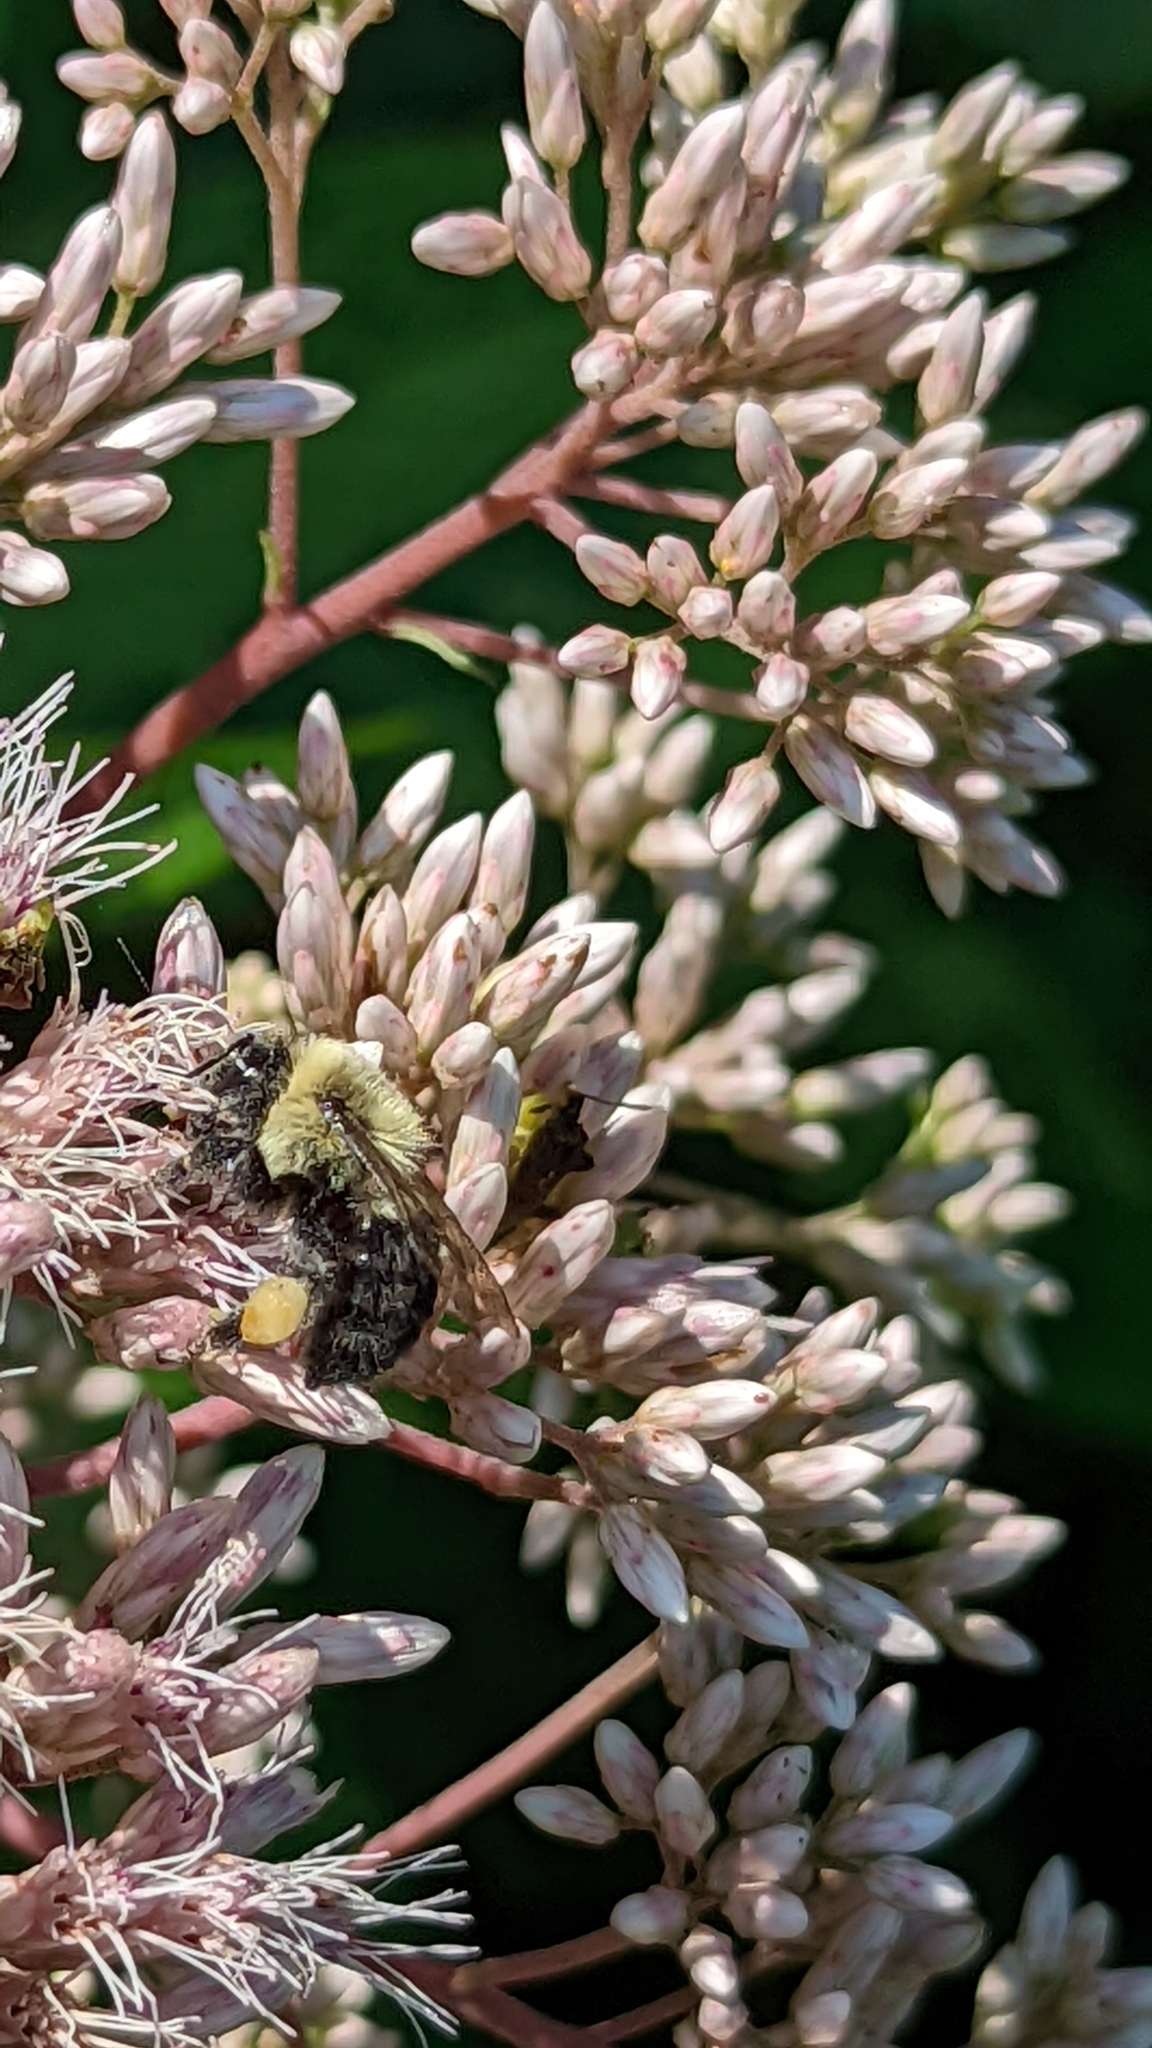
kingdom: Animalia
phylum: Arthropoda
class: Insecta
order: Hymenoptera
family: Apidae
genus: Bombus
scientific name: Bombus impatiens
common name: Common eastern bumble bee
